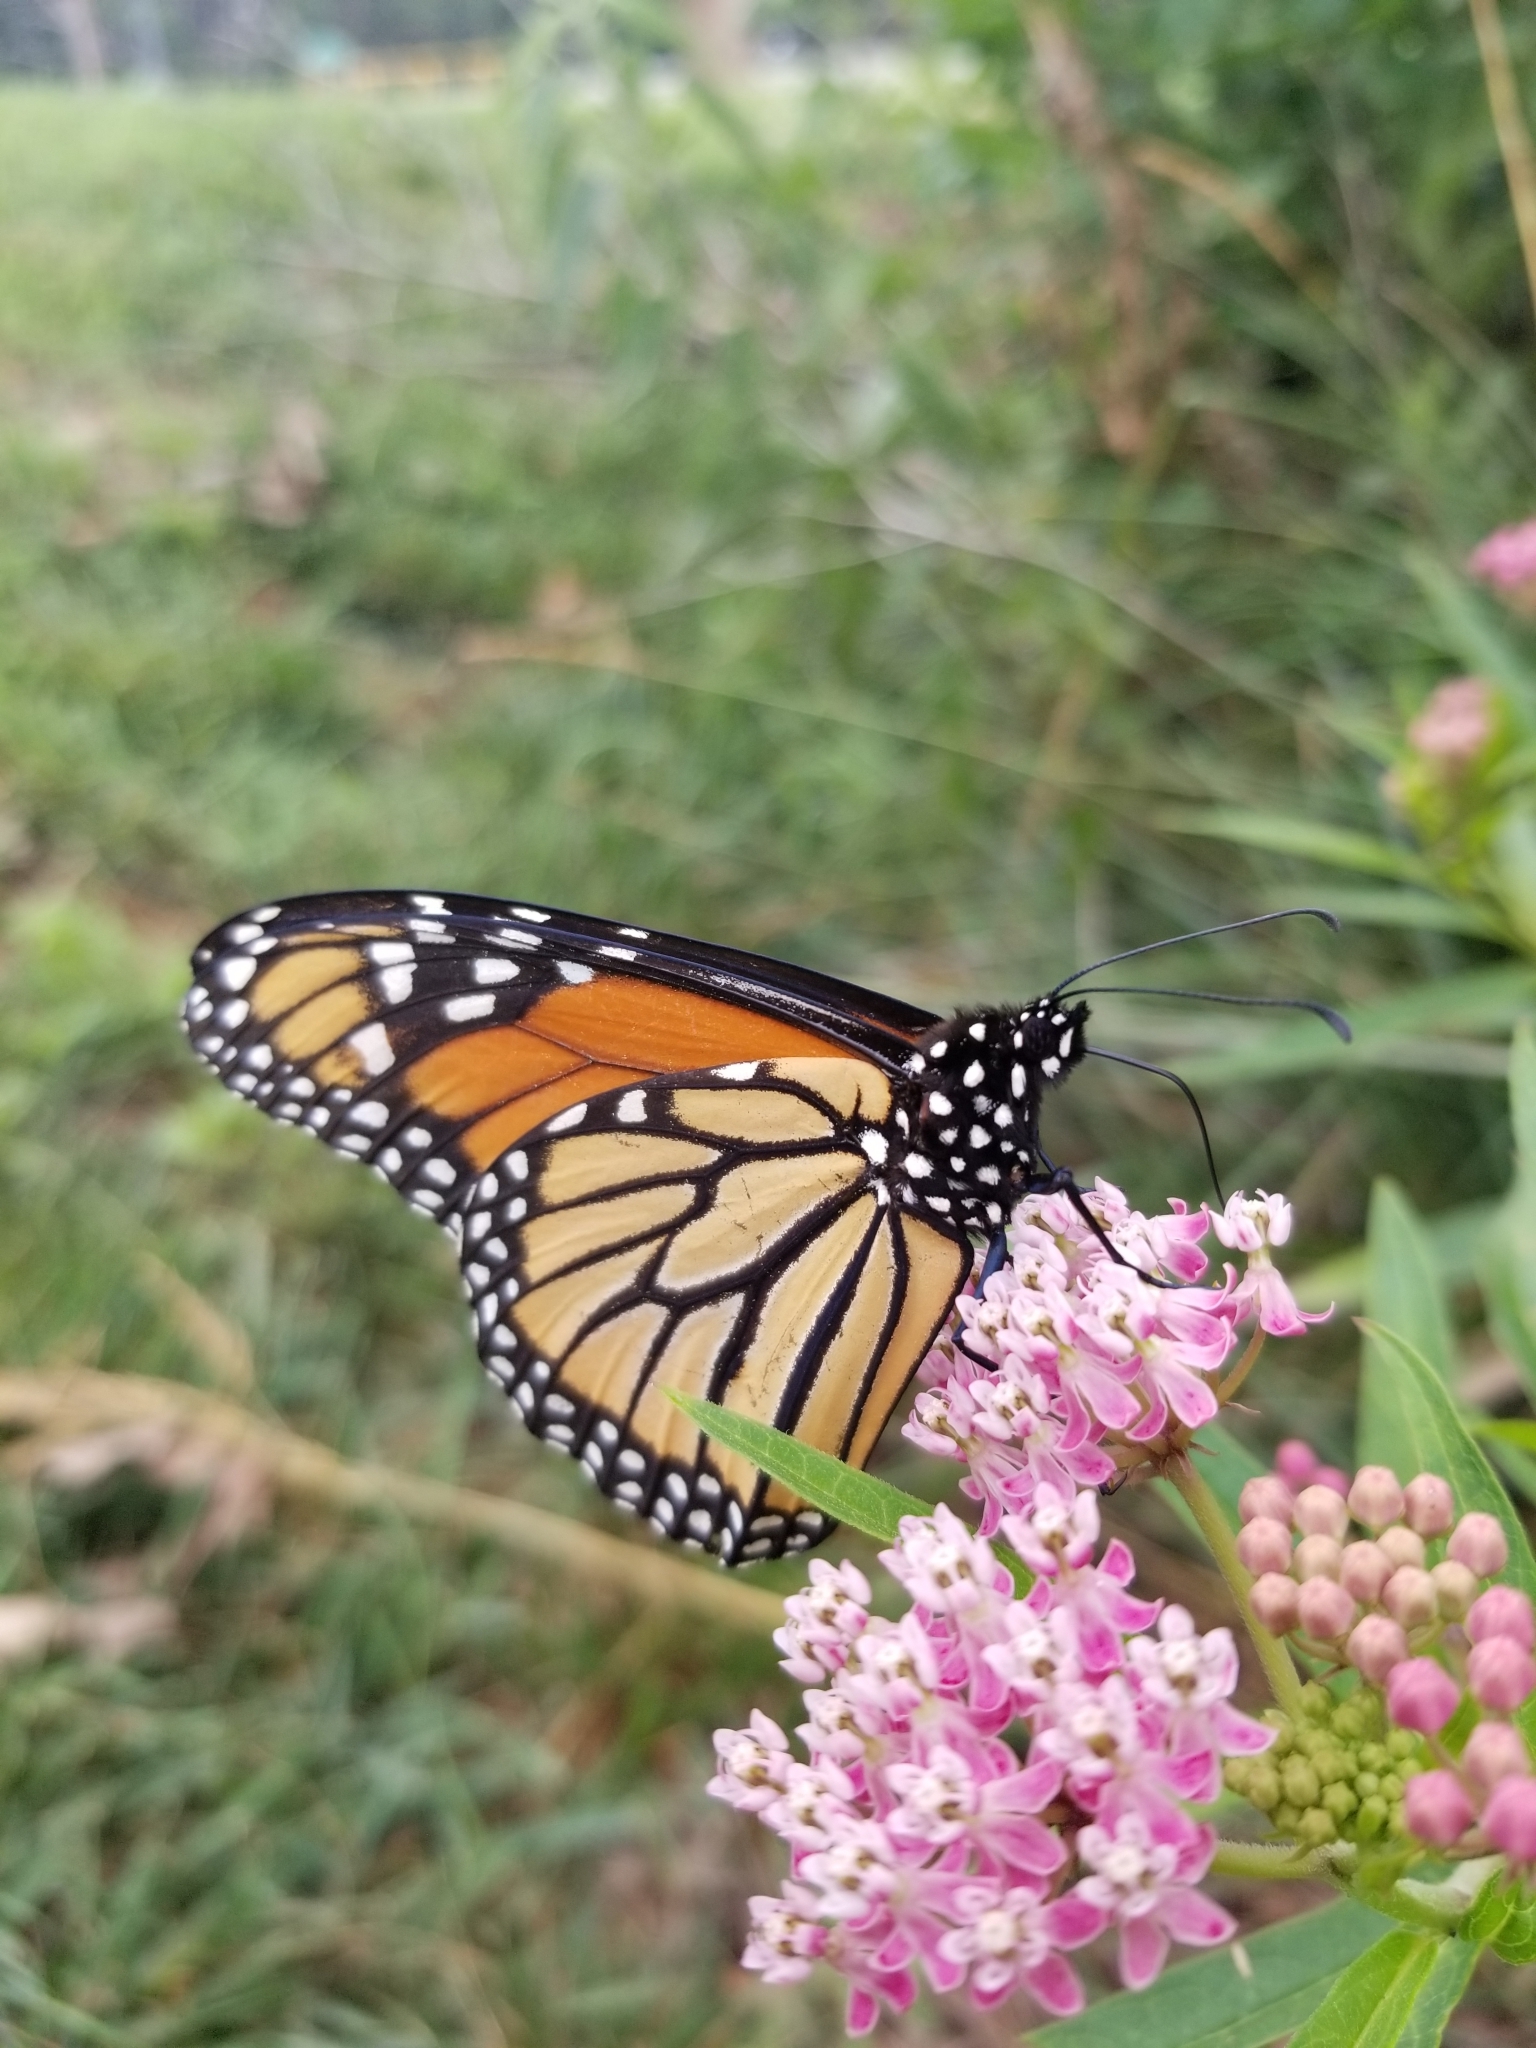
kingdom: Animalia
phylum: Arthropoda
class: Insecta
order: Lepidoptera
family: Nymphalidae
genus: Danaus
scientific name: Danaus plexippus
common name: Monarch
